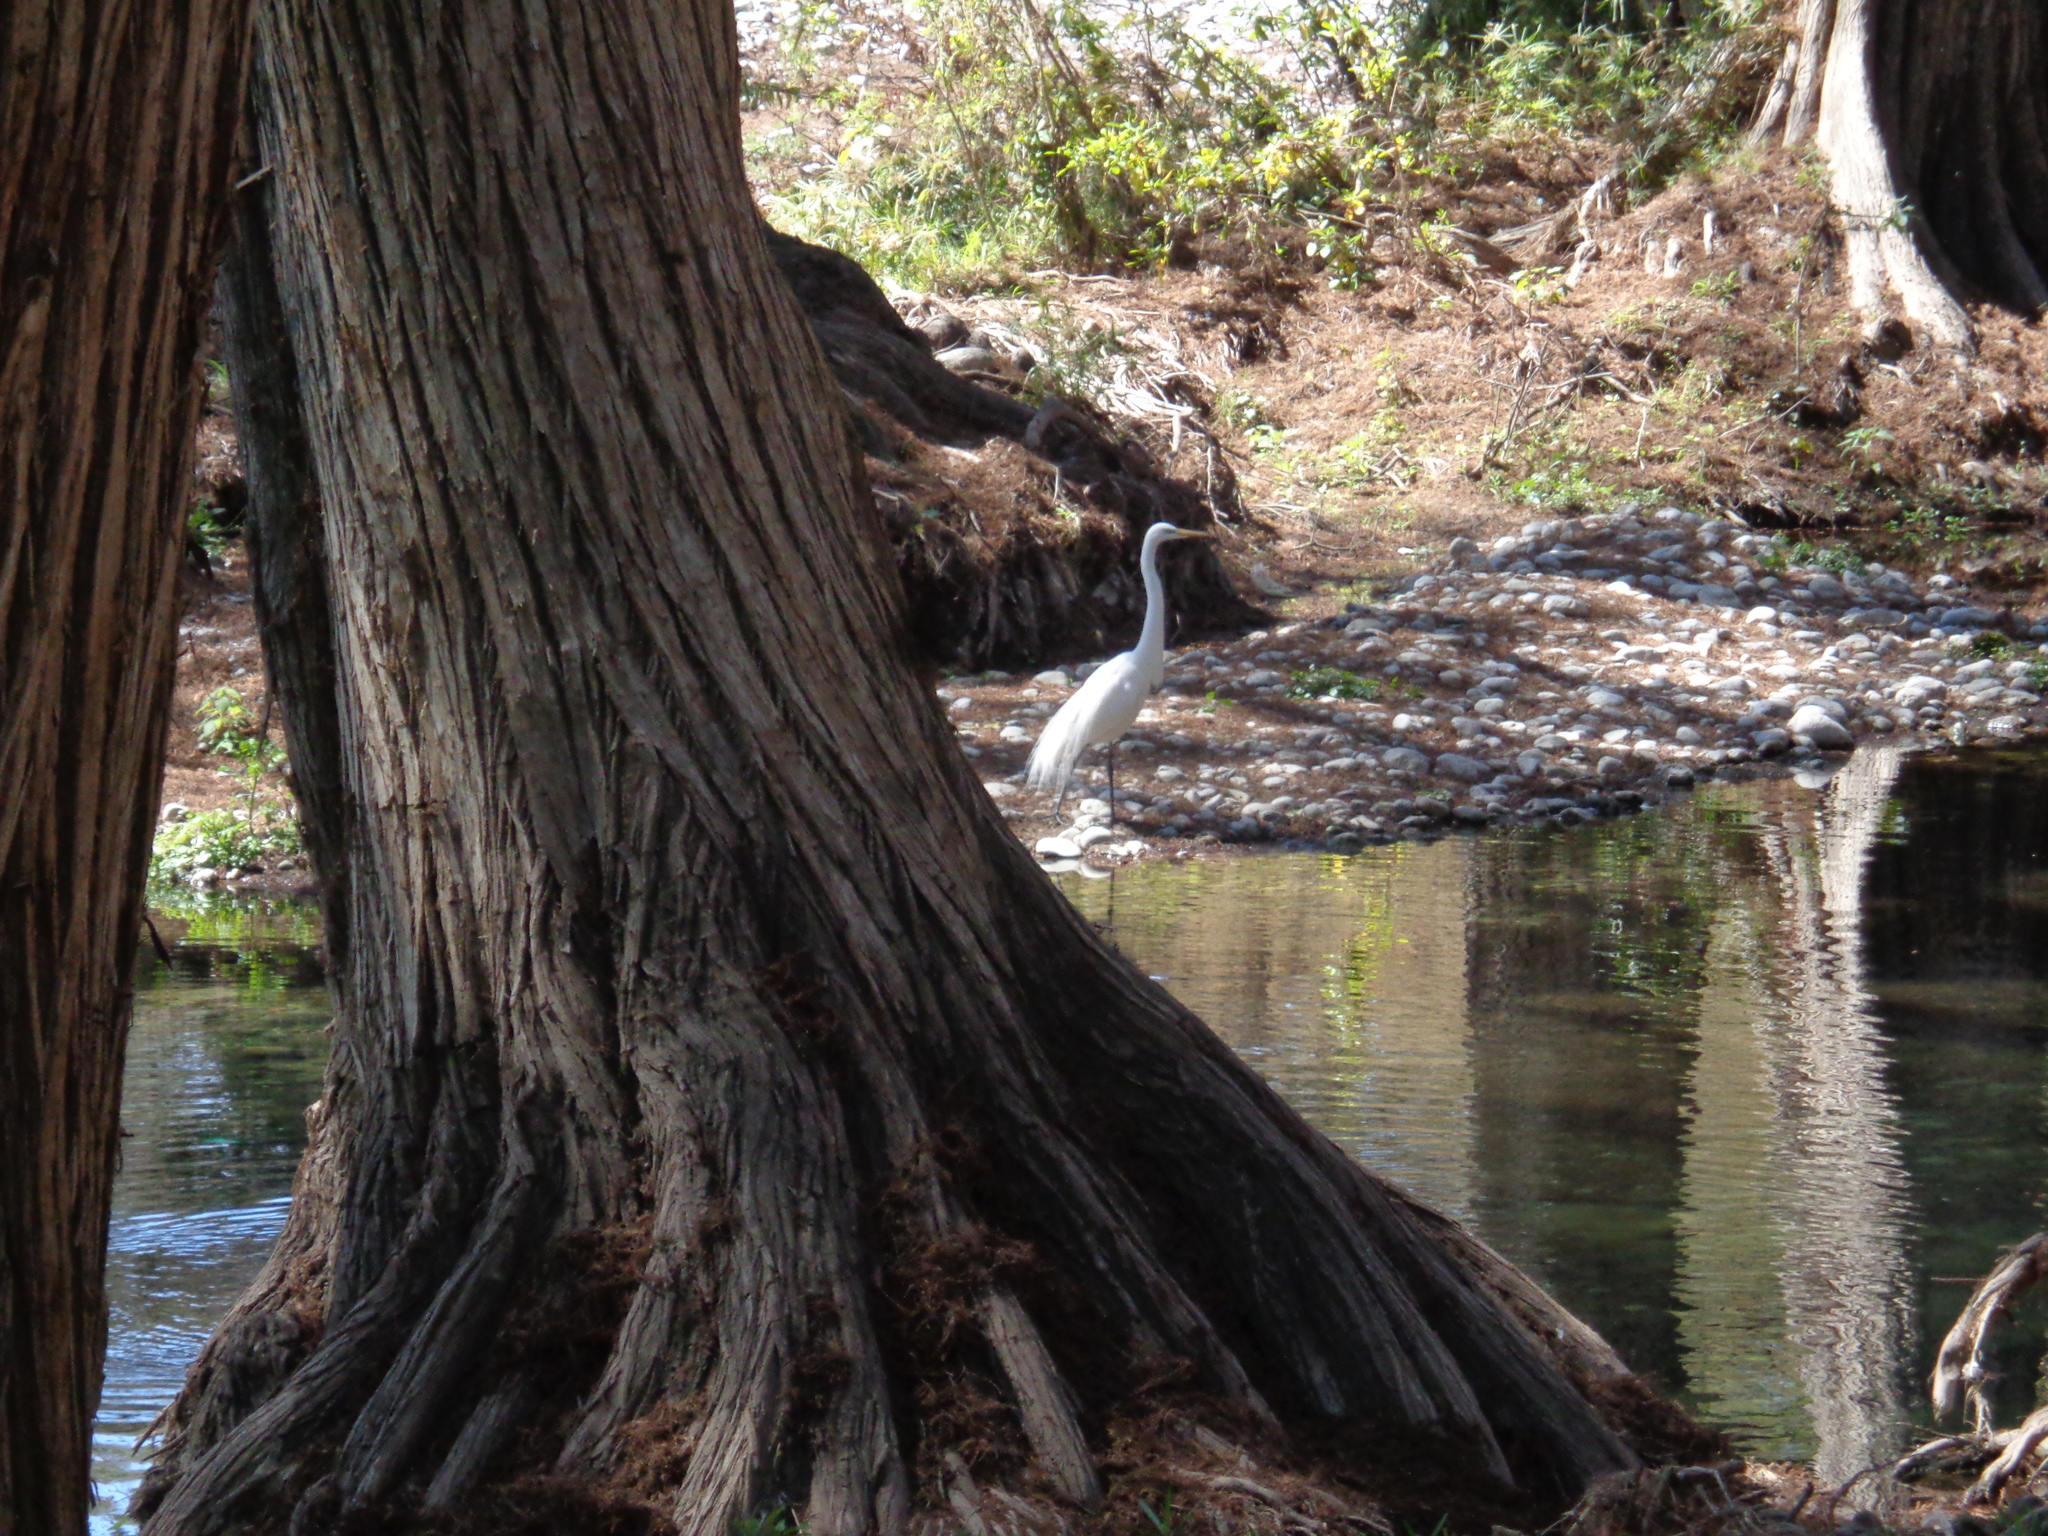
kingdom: Animalia
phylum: Chordata
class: Aves
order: Pelecaniformes
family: Ardeidae
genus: Ardea
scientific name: Ardea alba
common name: Great egret
